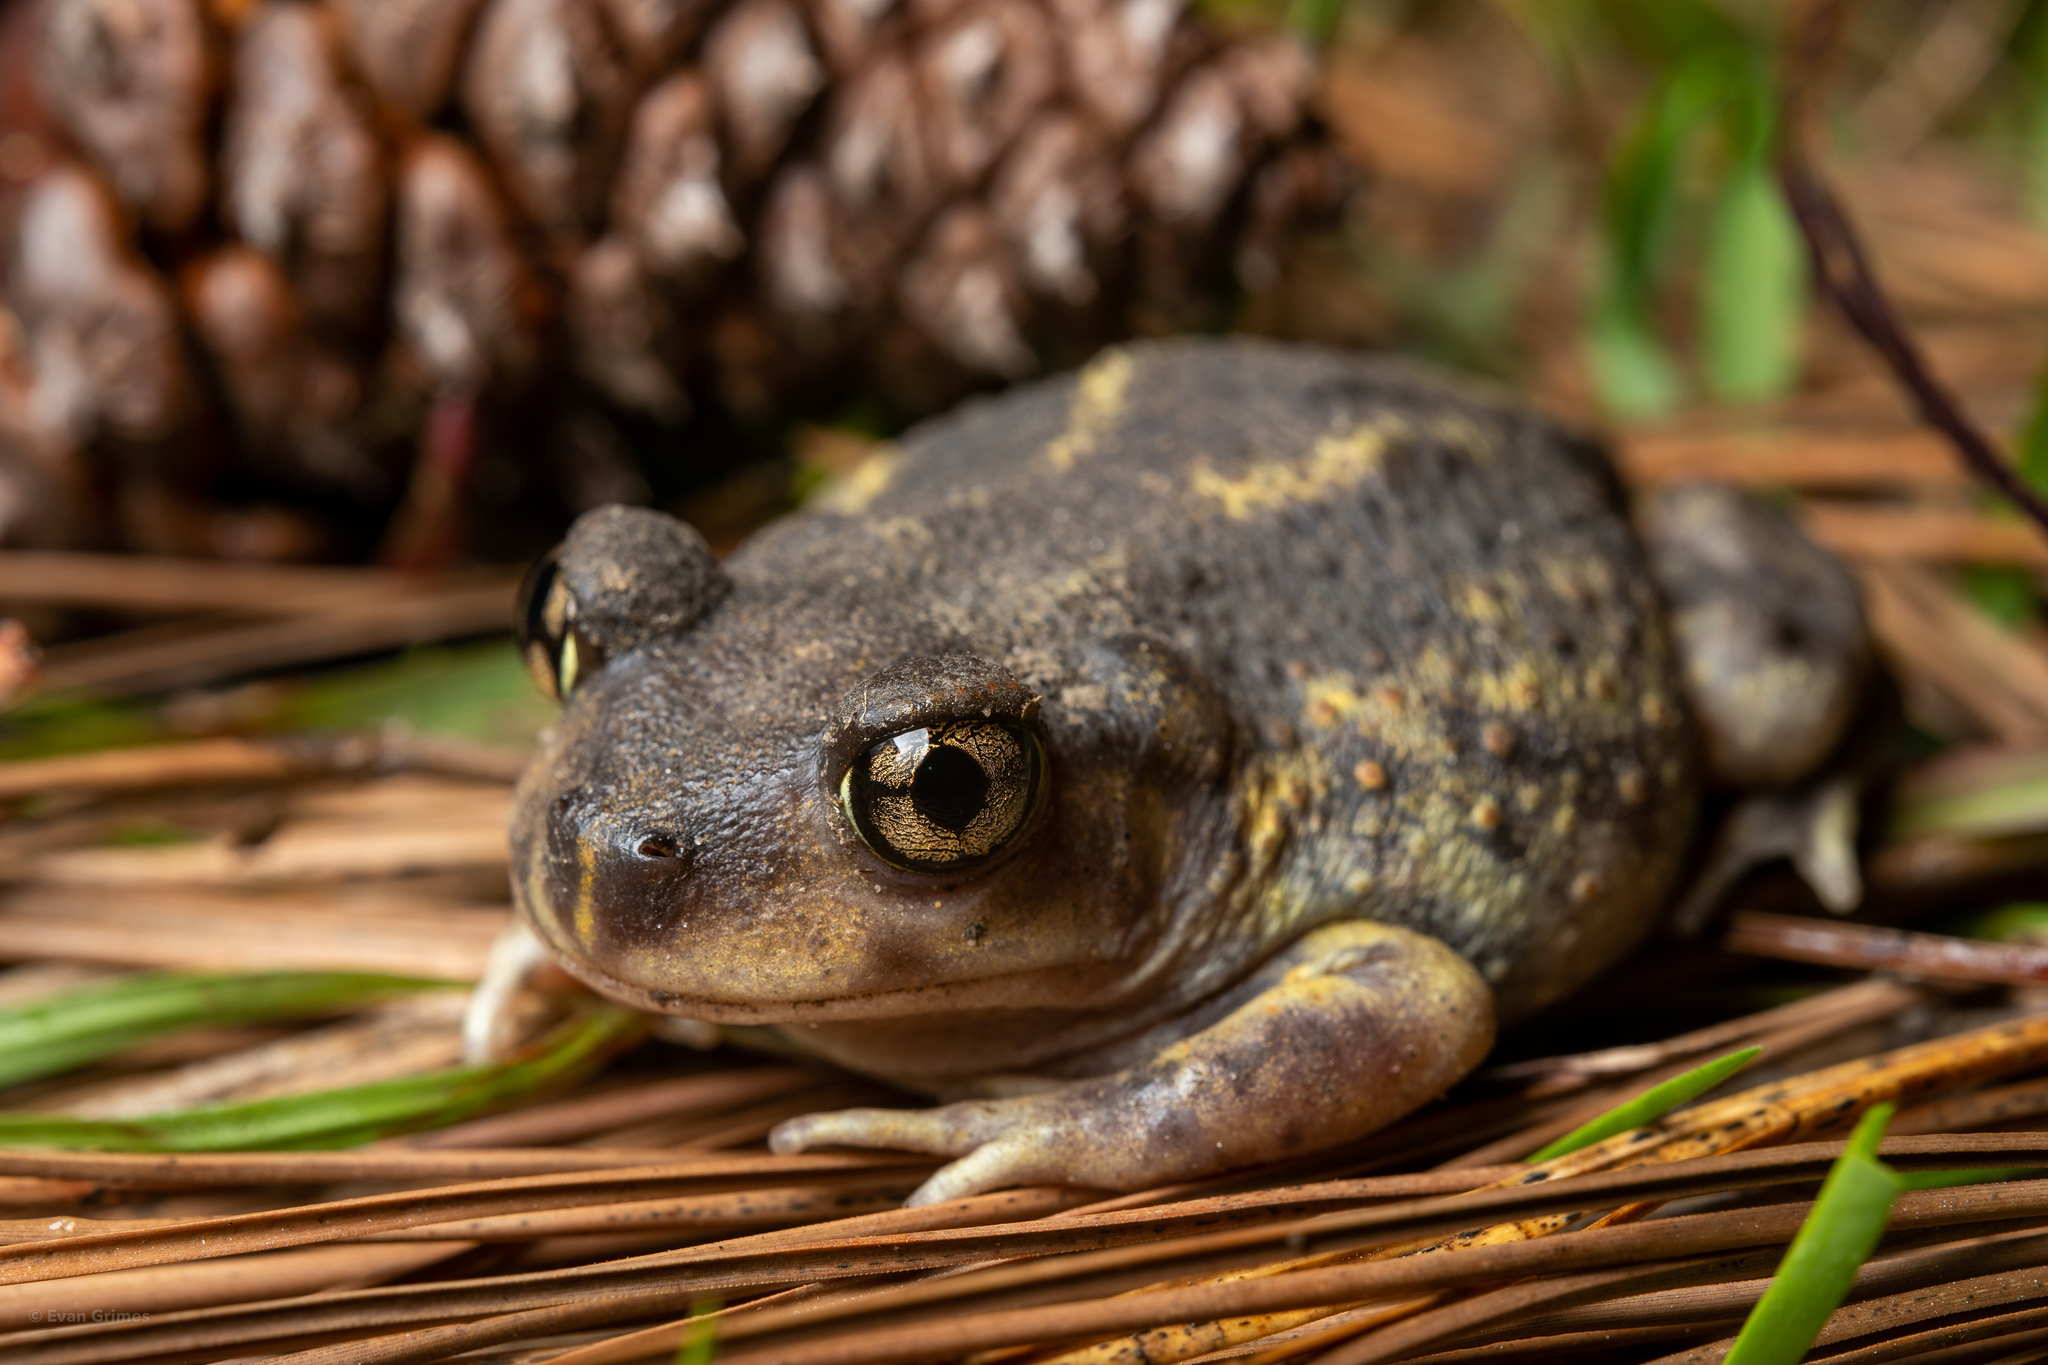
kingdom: Animalia
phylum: Chordata
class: Amphibia
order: Anura
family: Scaphiopodidae
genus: Scaphiopus
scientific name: Scaphiopus holbrookii
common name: Eastern spadefoot toad
